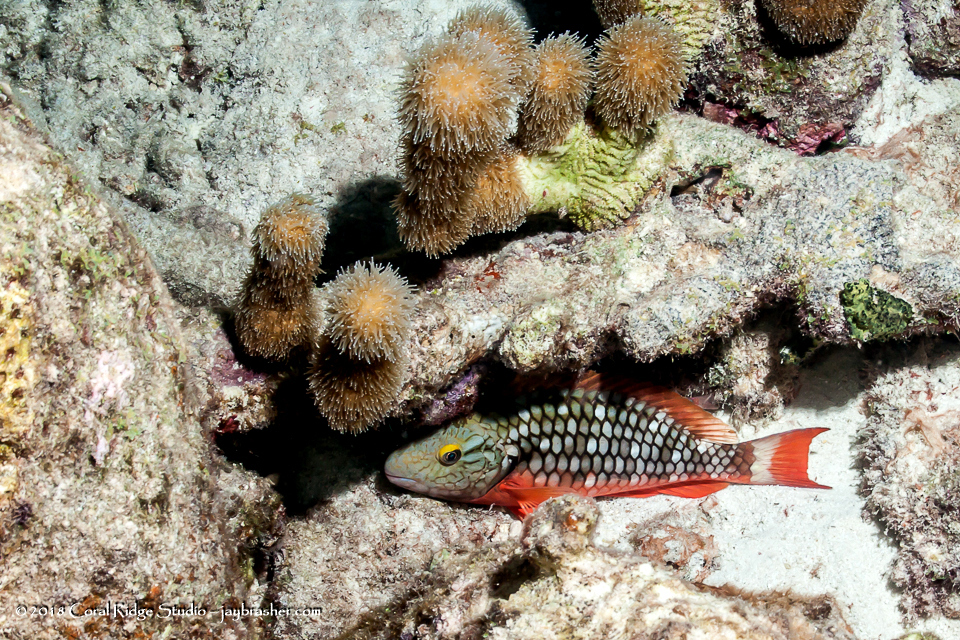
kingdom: Animalia
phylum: Chordata
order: Perciformes
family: Scaridae
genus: Sparisoma
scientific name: Sparisoma viride
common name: Stoplight parrotfish
